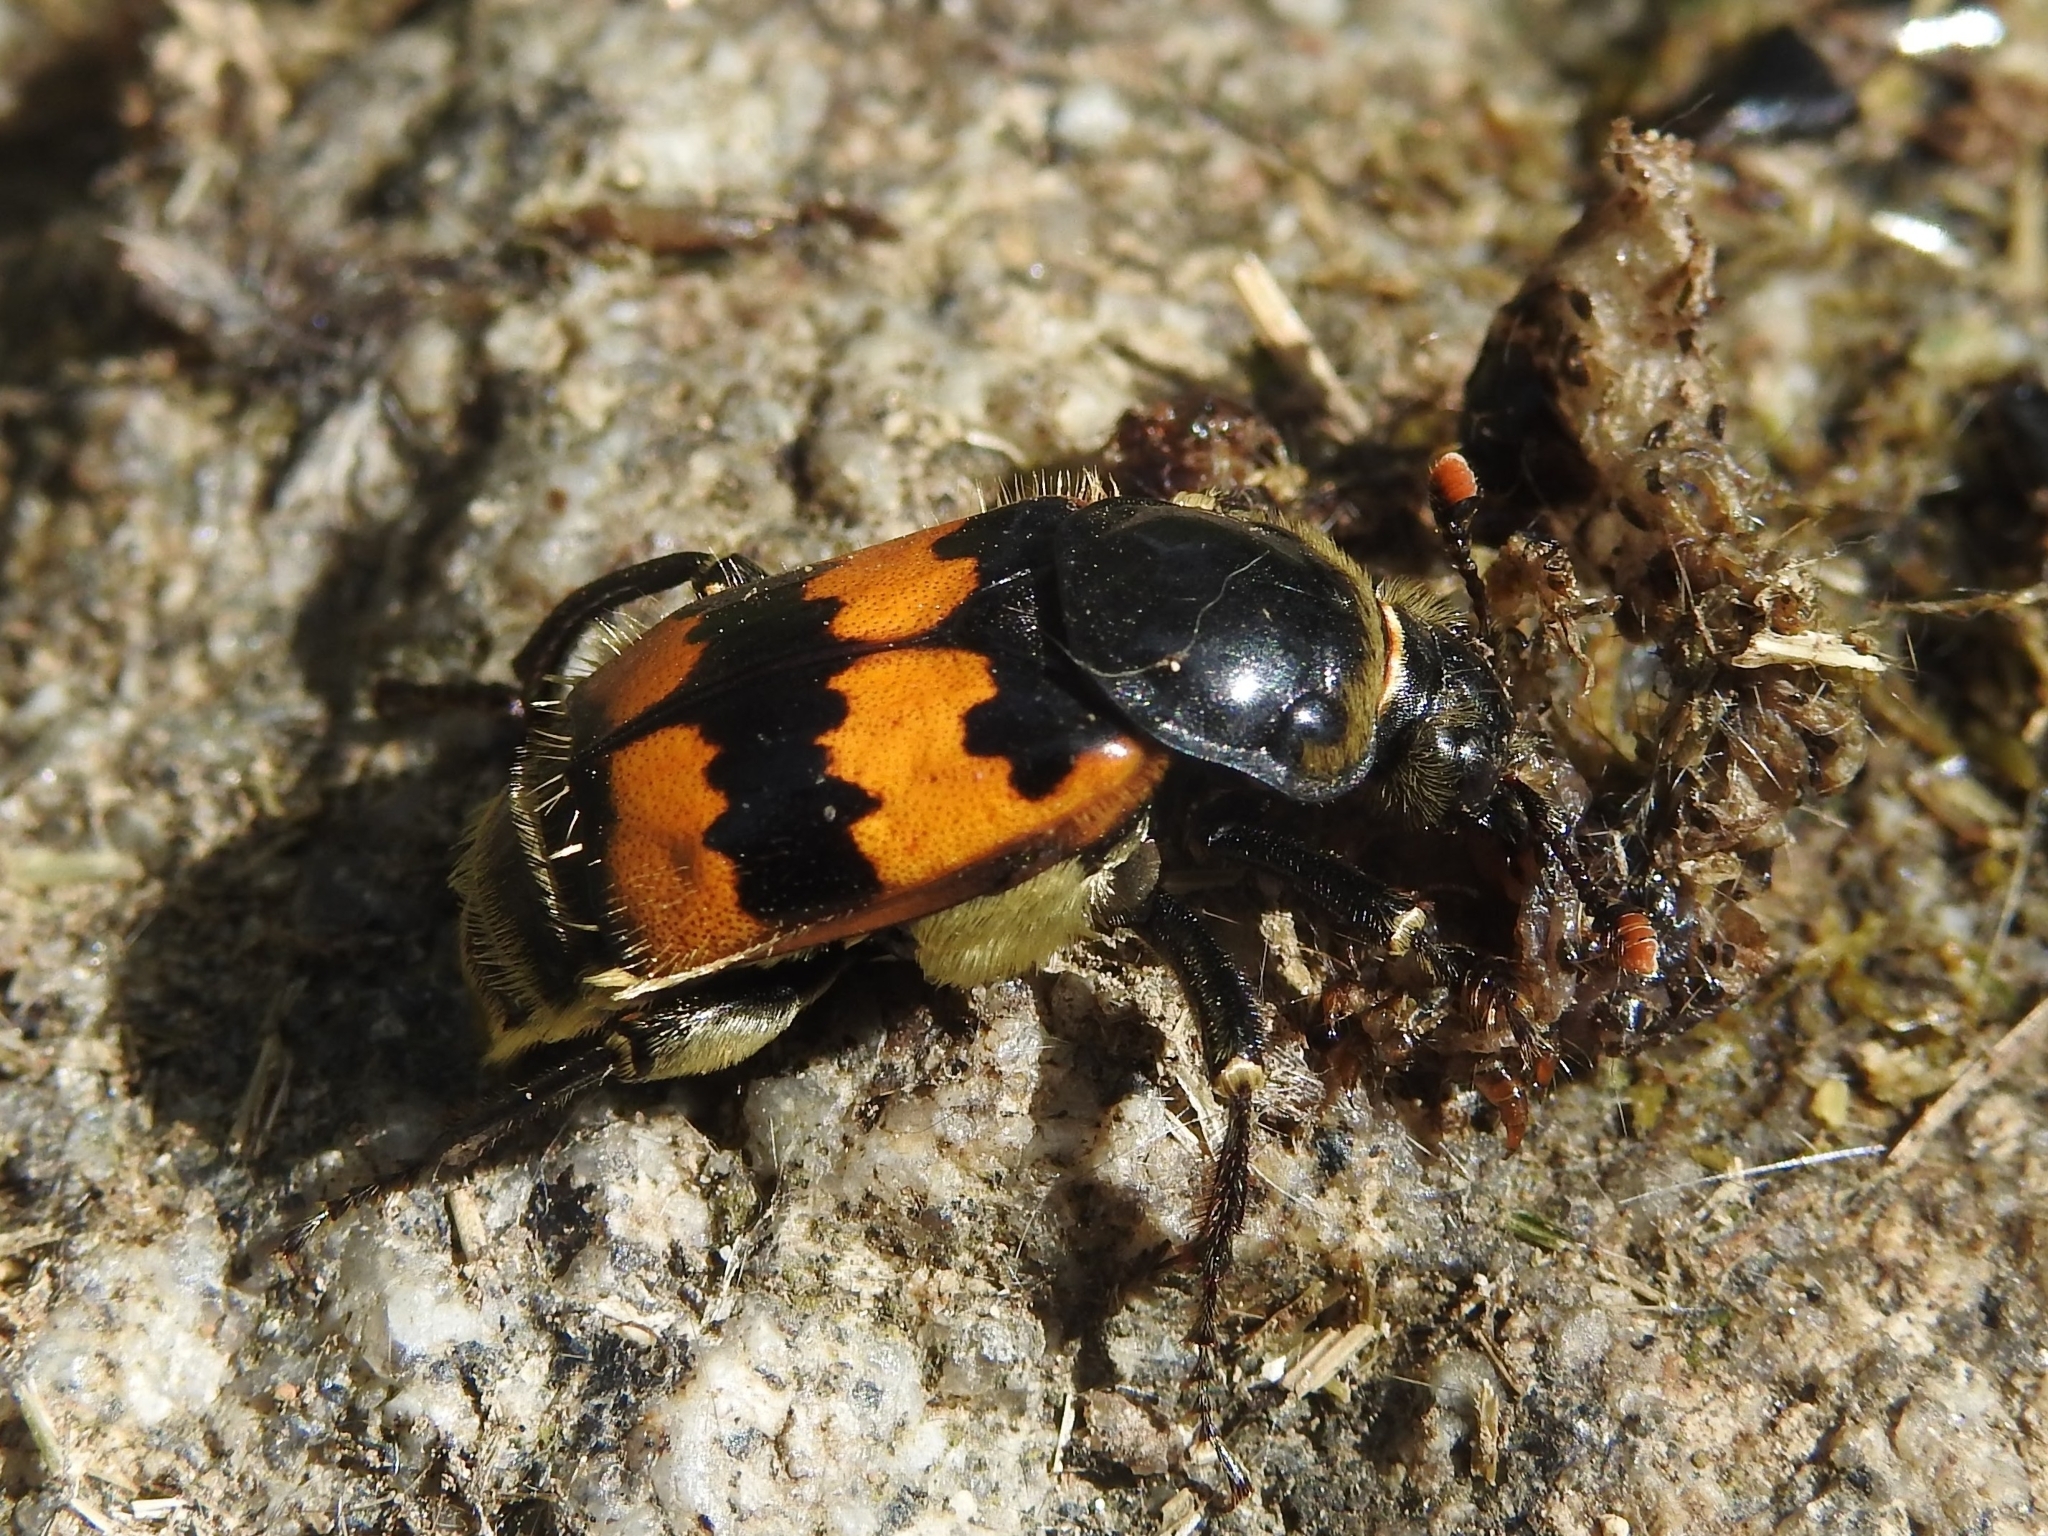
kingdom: Animalia
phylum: Arthropoda
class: Insecta
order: Coleoptera
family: Staphylinidae
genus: Nicrophorus
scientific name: Nicrophorus vespillo
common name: Common burying beetle
